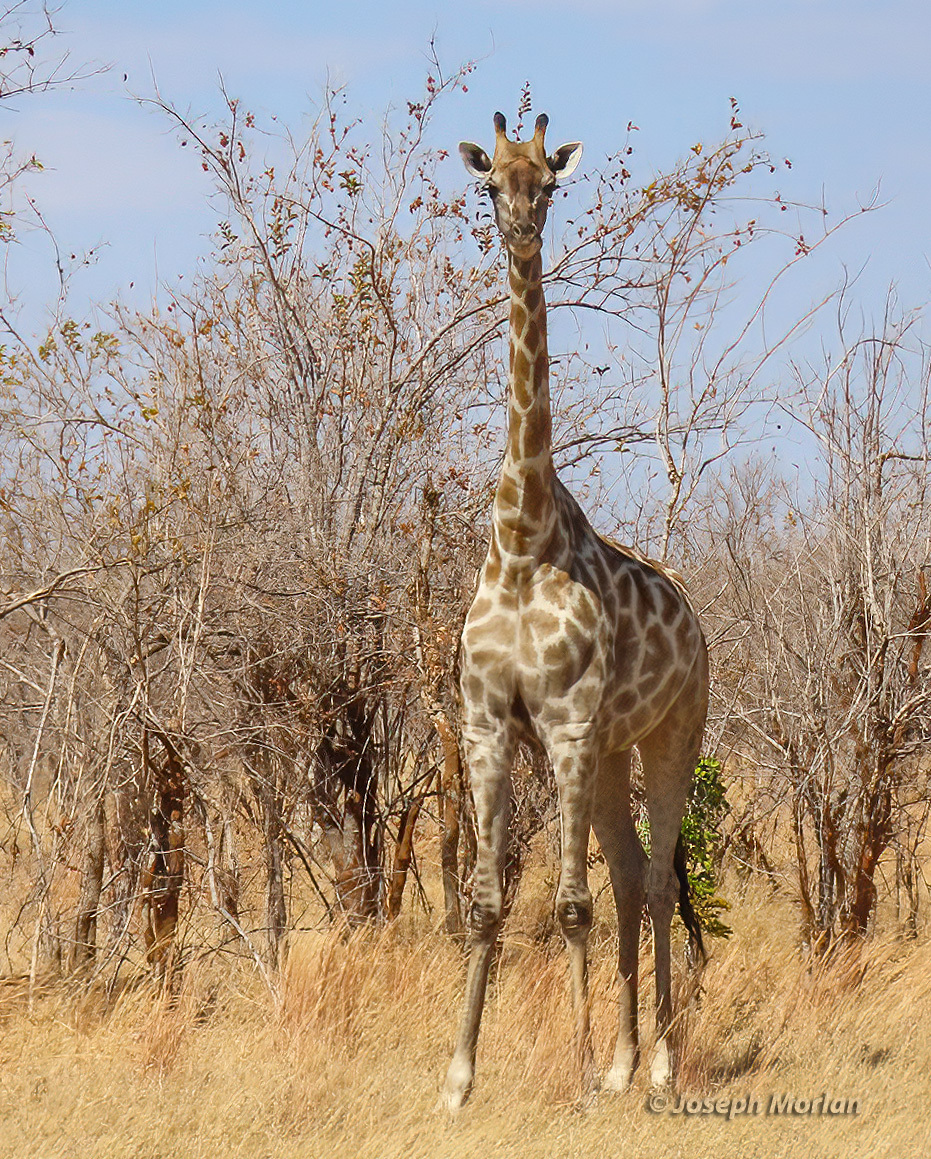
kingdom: Animalia
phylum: Chordata
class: Mammalia
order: Artiodactyla
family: Giraffidae
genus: Giraffa
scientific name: Giraffa giraffa
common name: Southern giraffe
